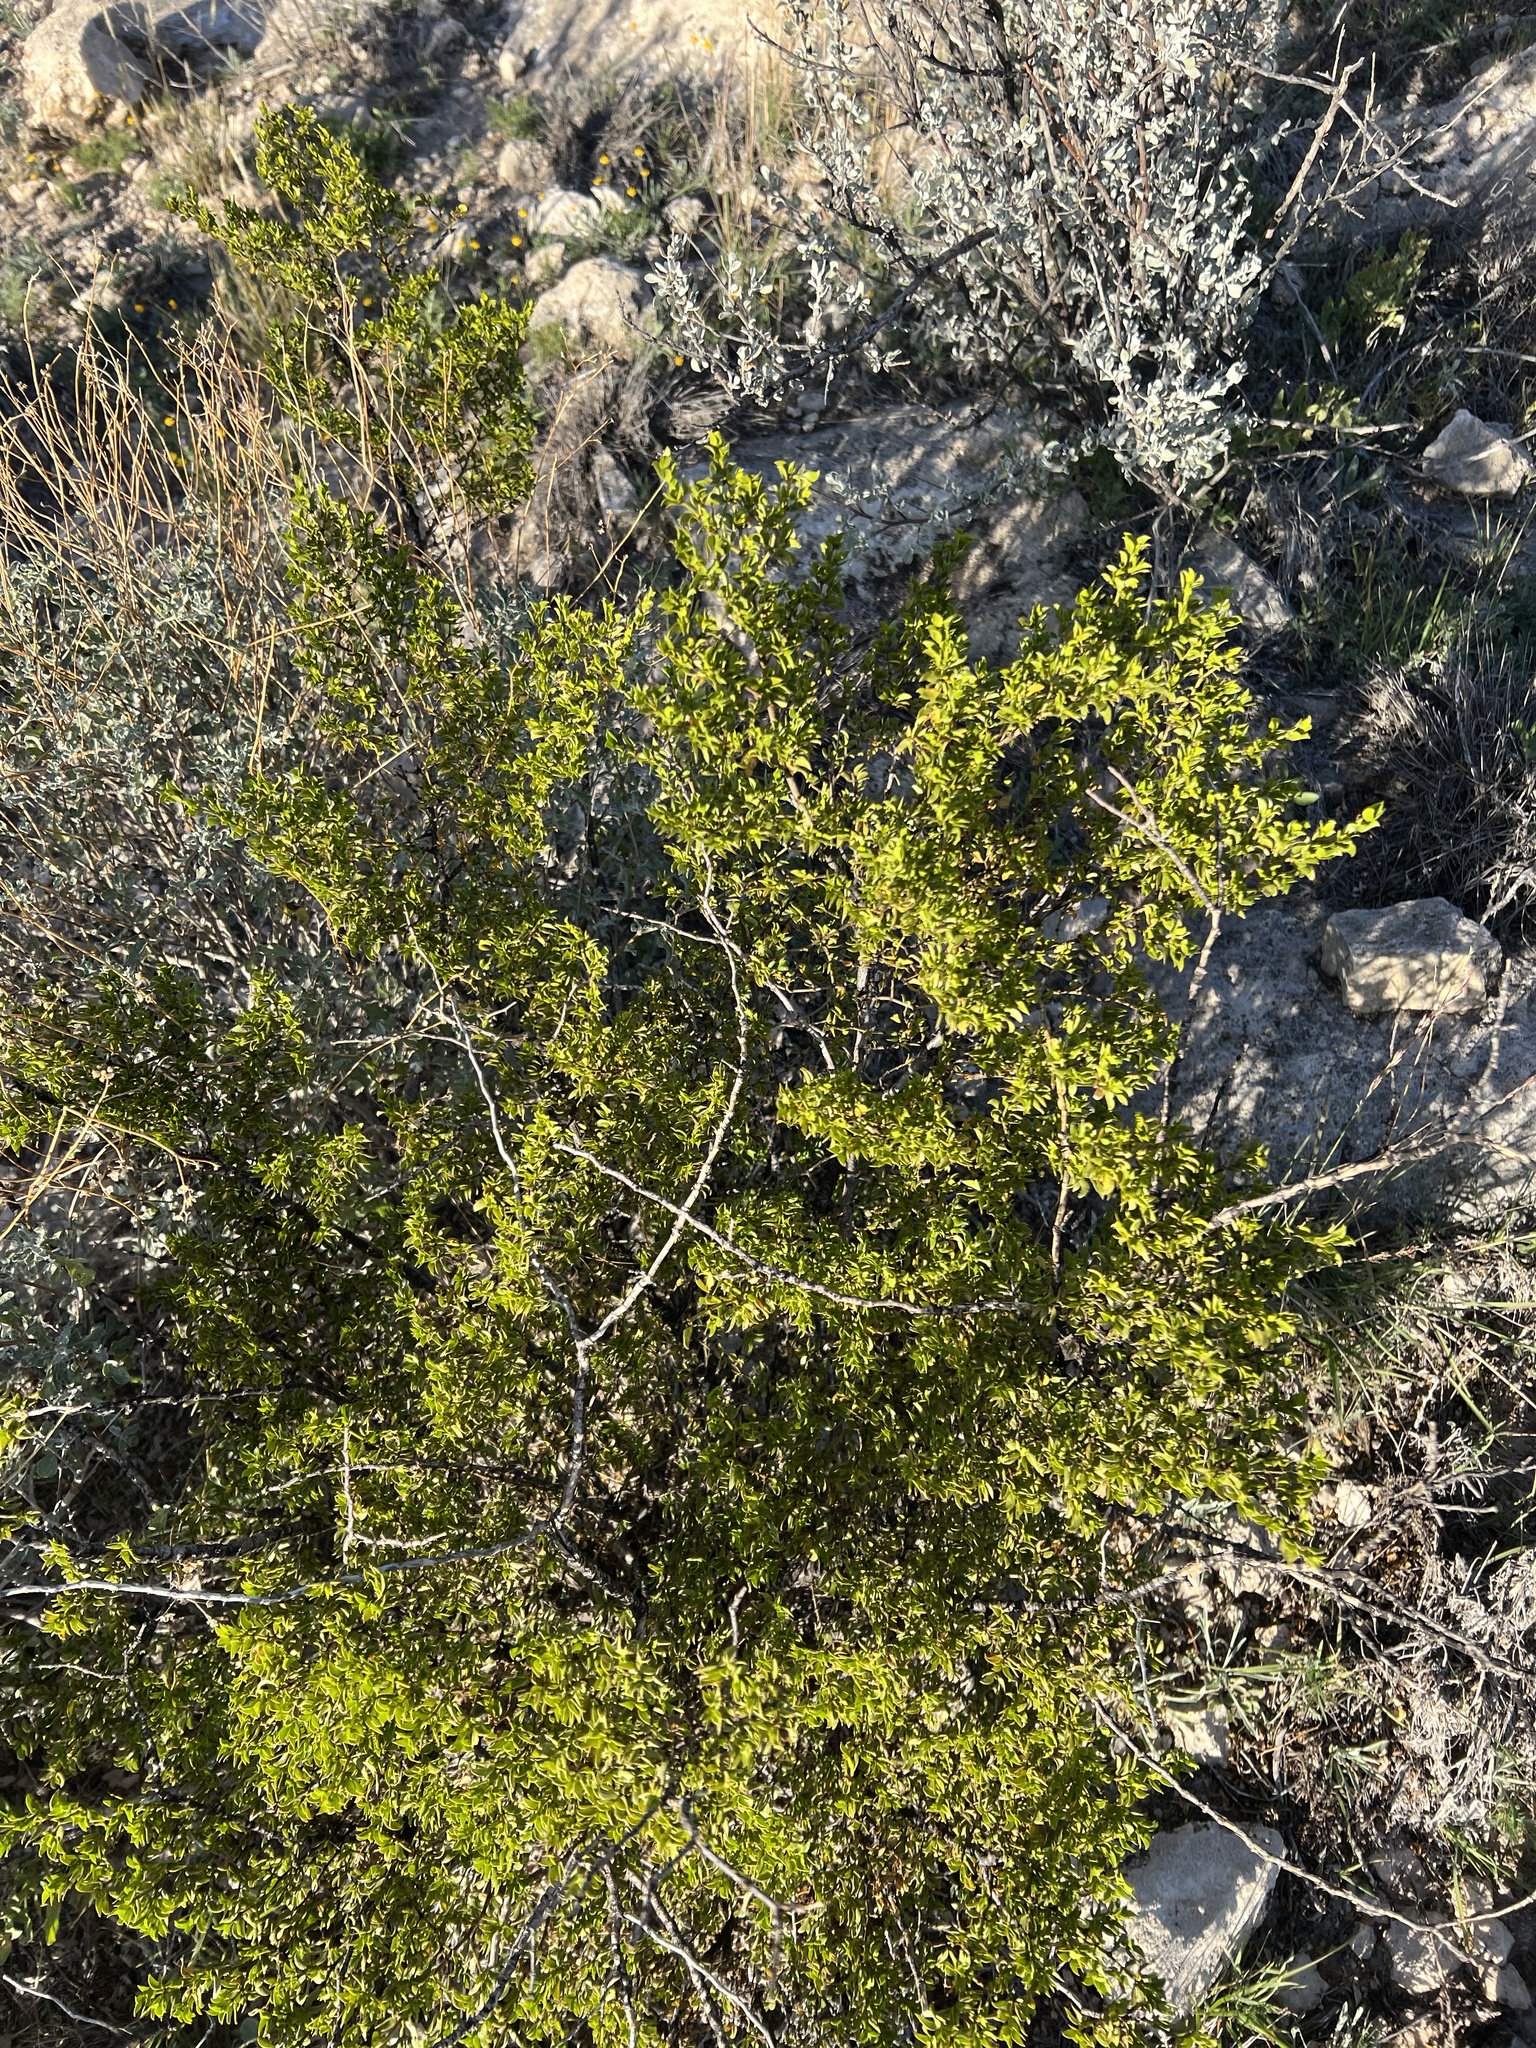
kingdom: Plantae
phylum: Tracheophyta
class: Magnoliopsida
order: Zygophyllales
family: Zygophyllaceae
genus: Larrea
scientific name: Larrea tridentata
